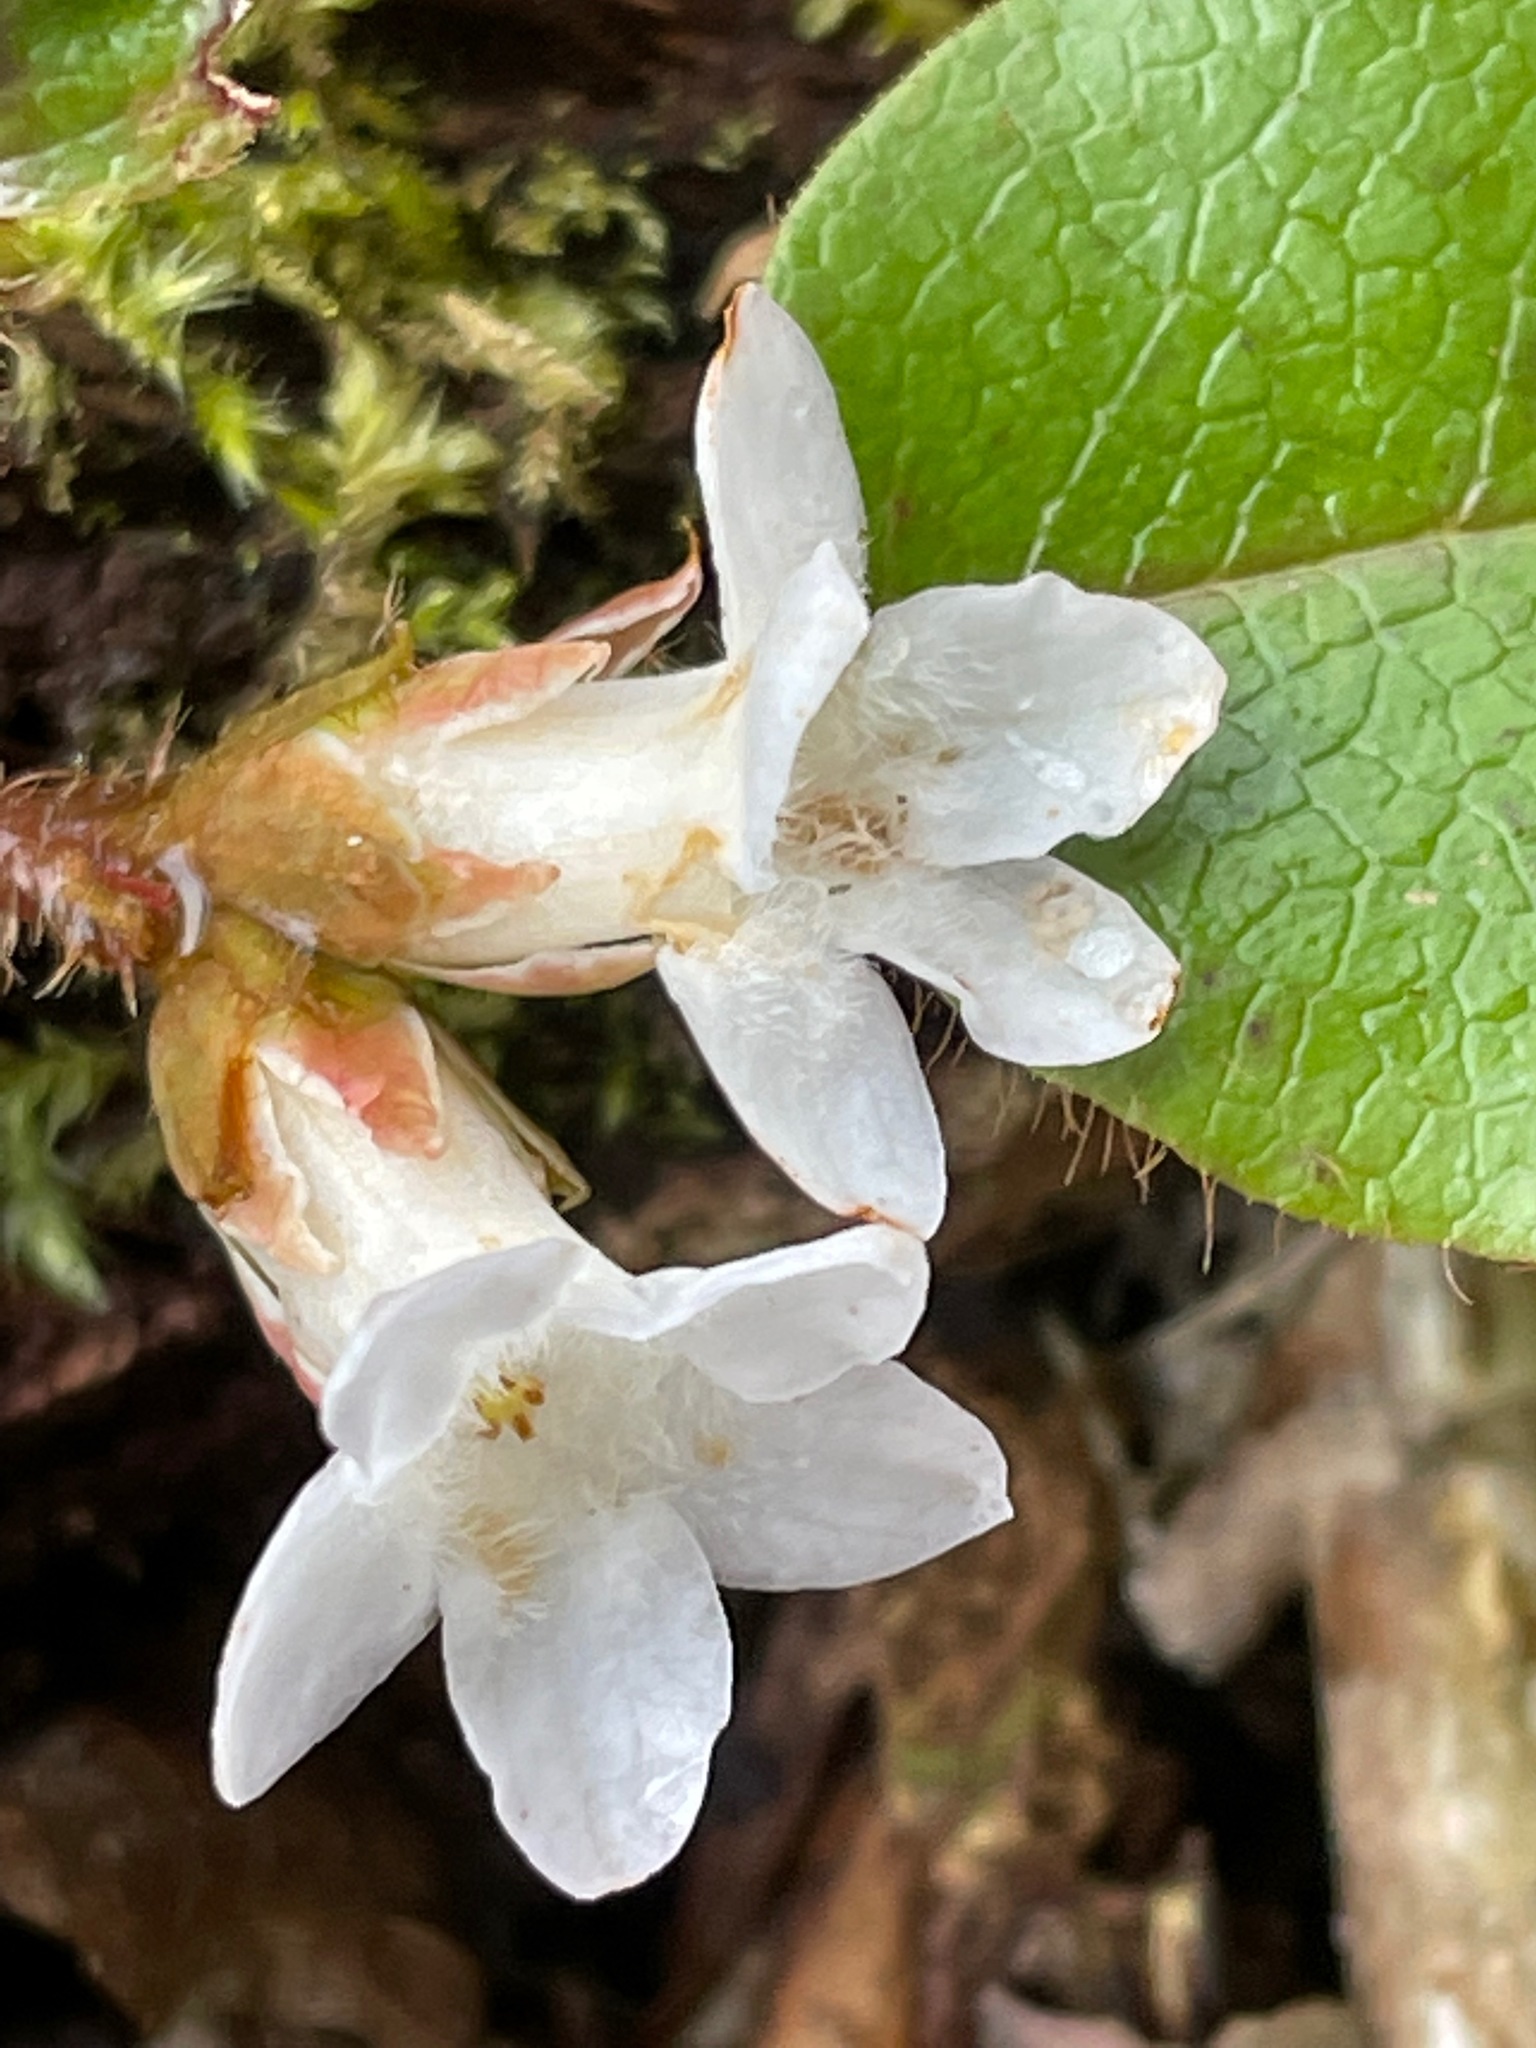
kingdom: Plantae
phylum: Tracheophyta
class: Magnoliopsida
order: Ericales
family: Ericaceae
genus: Epigaea
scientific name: Epigaea repens
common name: Gravelroot
